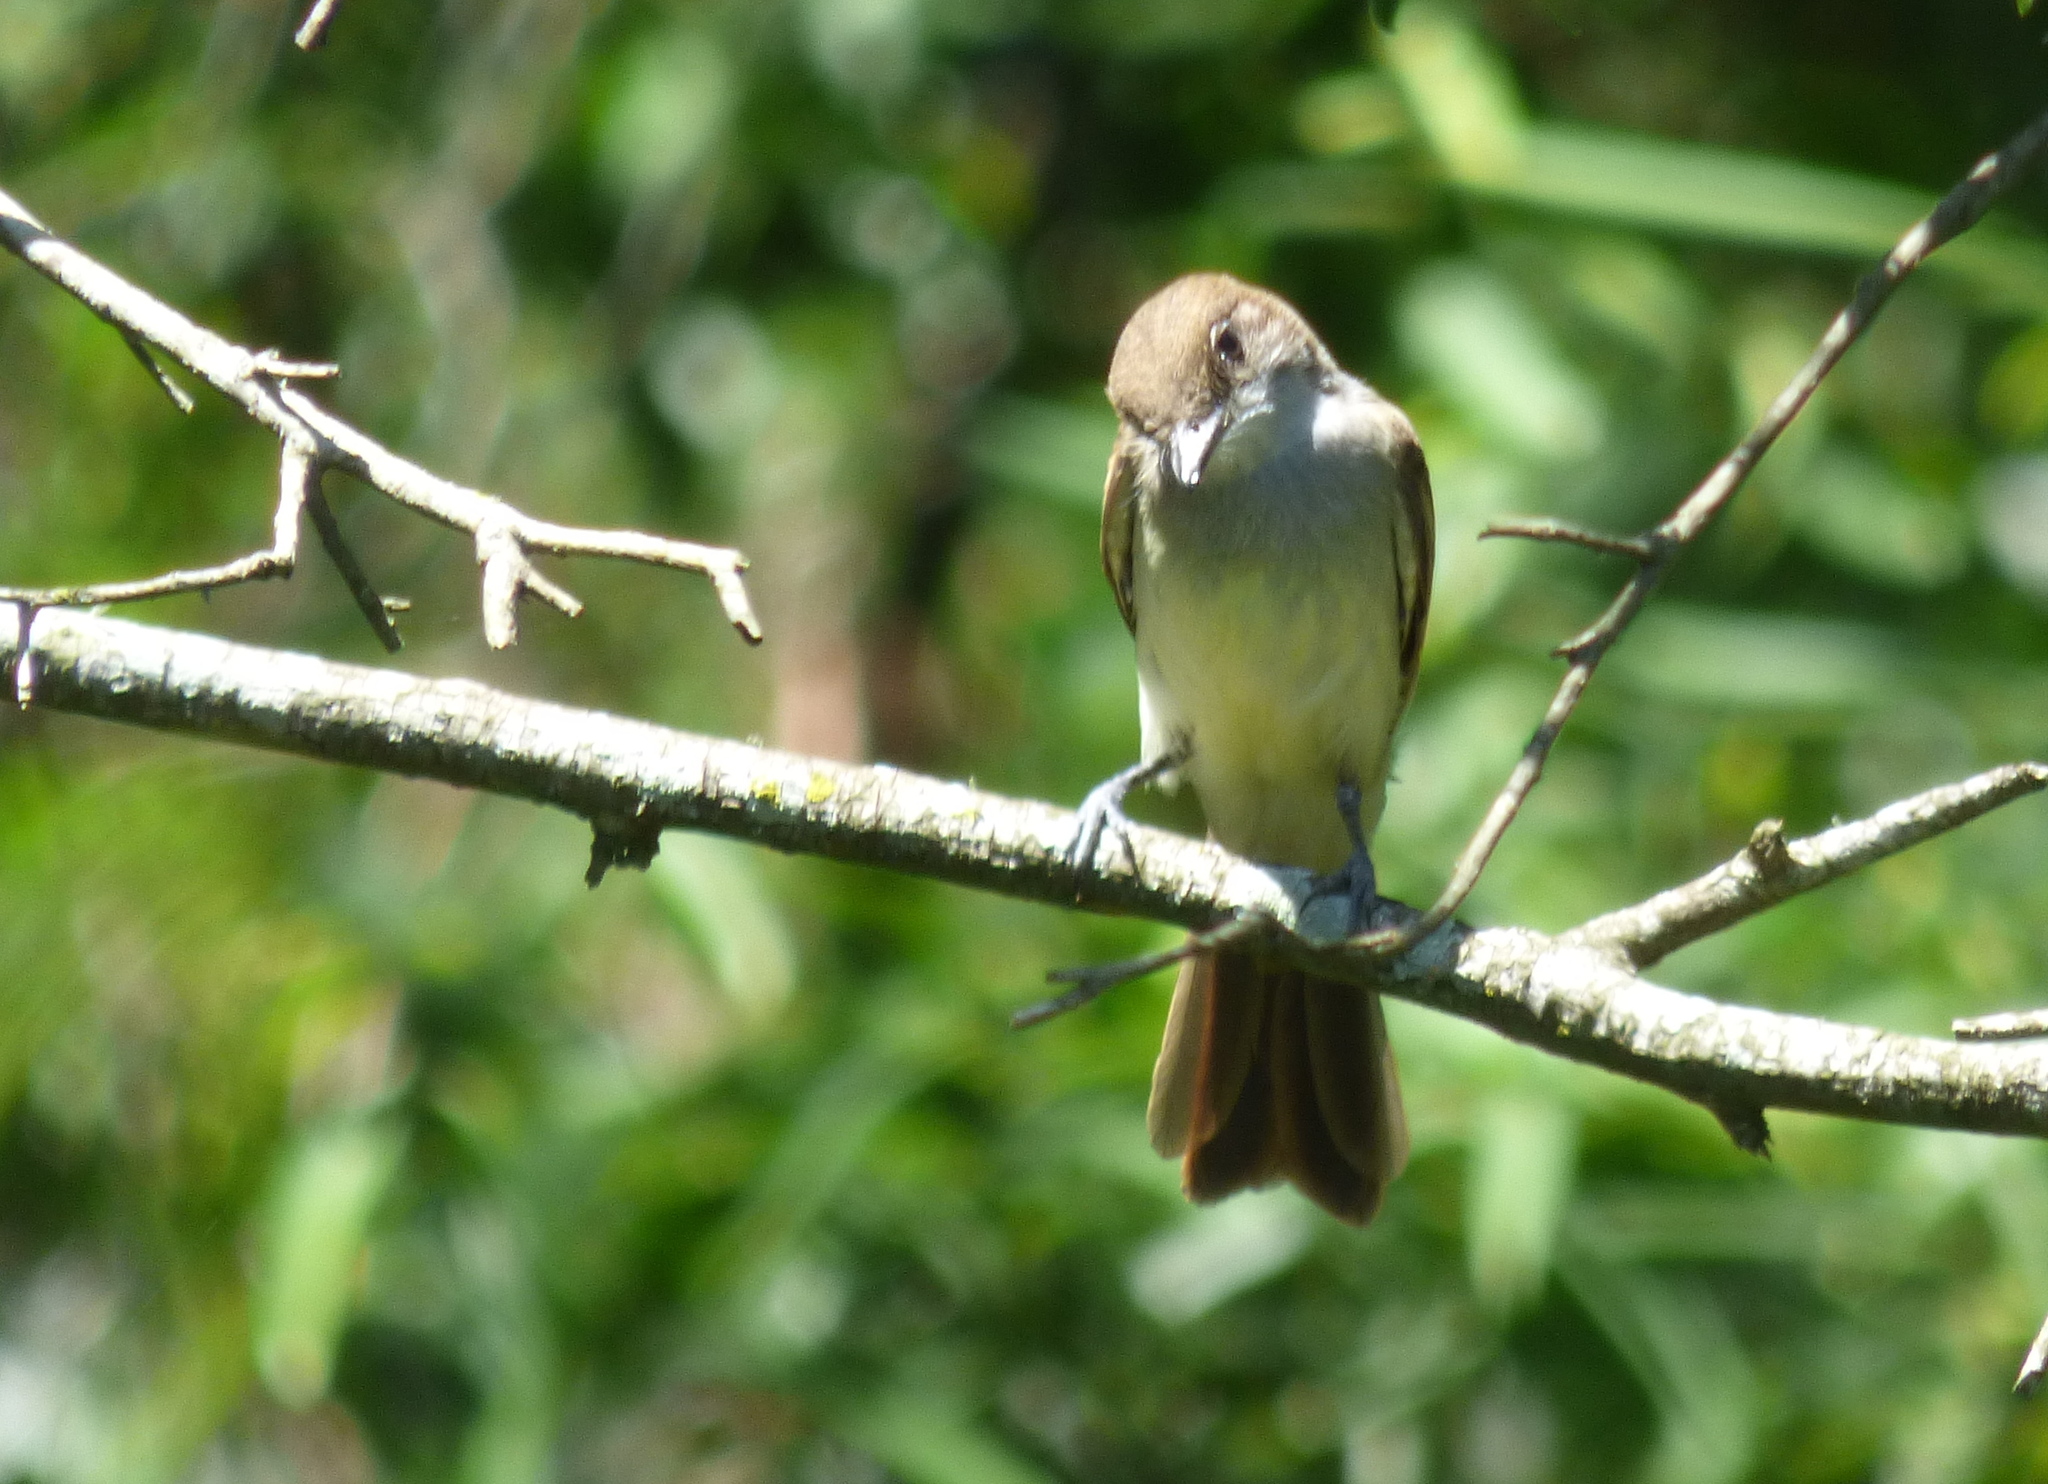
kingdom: Animalia
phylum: Chordata
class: Aves
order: Passeriformes
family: Tyrannidae
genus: Myiarchus
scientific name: Myiarchus swainsoni
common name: Swainson's flycatcher
